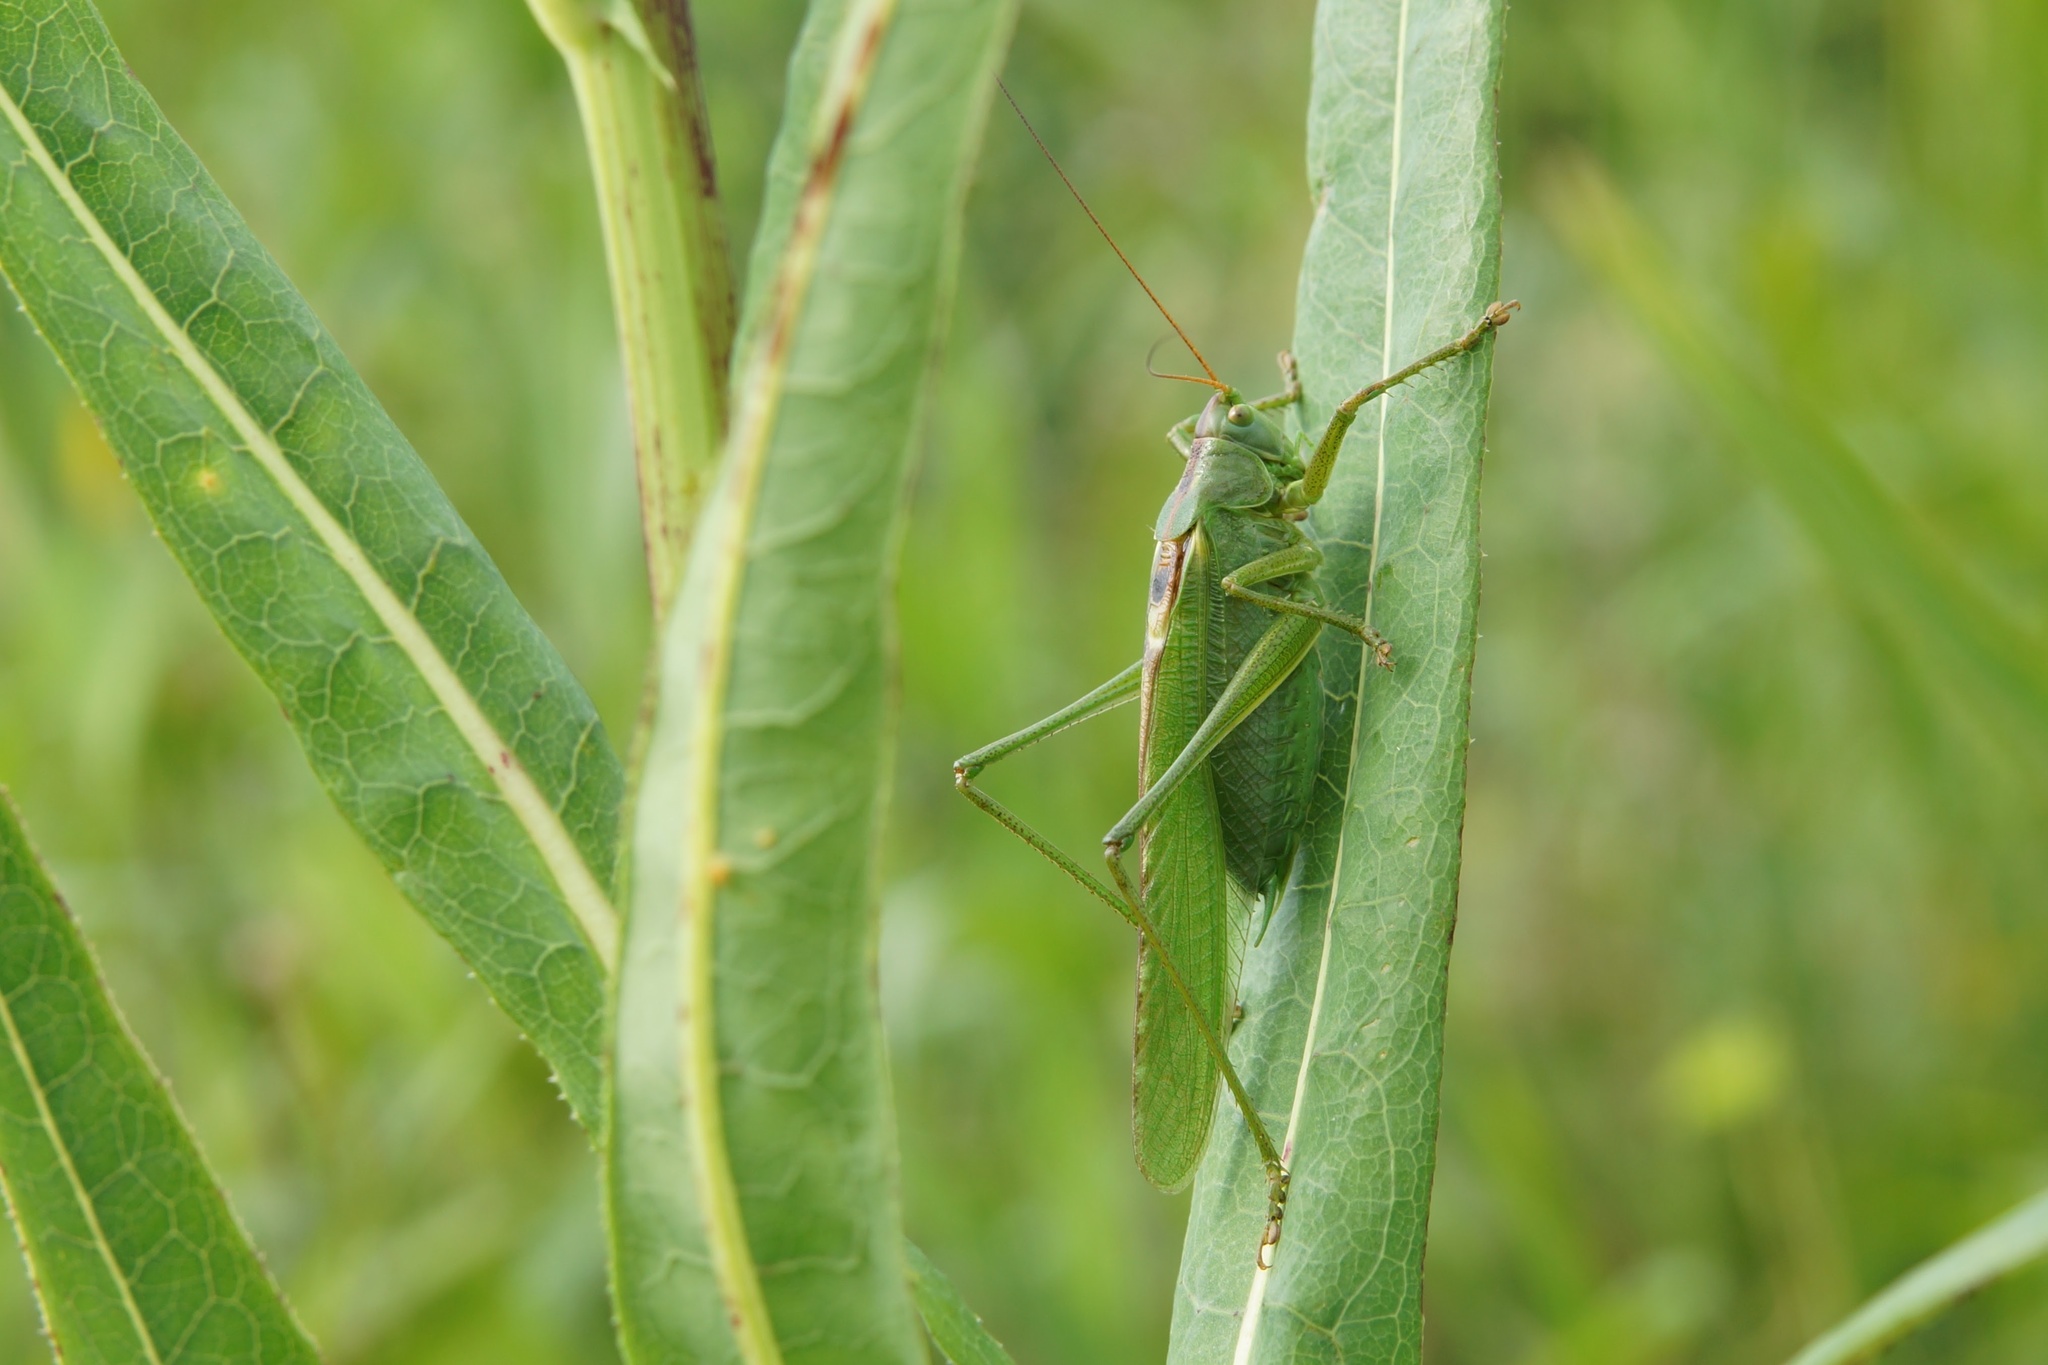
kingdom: Animalia
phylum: Arthropoda
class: Insecta
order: Orthoptera
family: Tettigoniidae
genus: Tettigonia
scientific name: Tettigonia viridissima
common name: Great green bush-cricket
